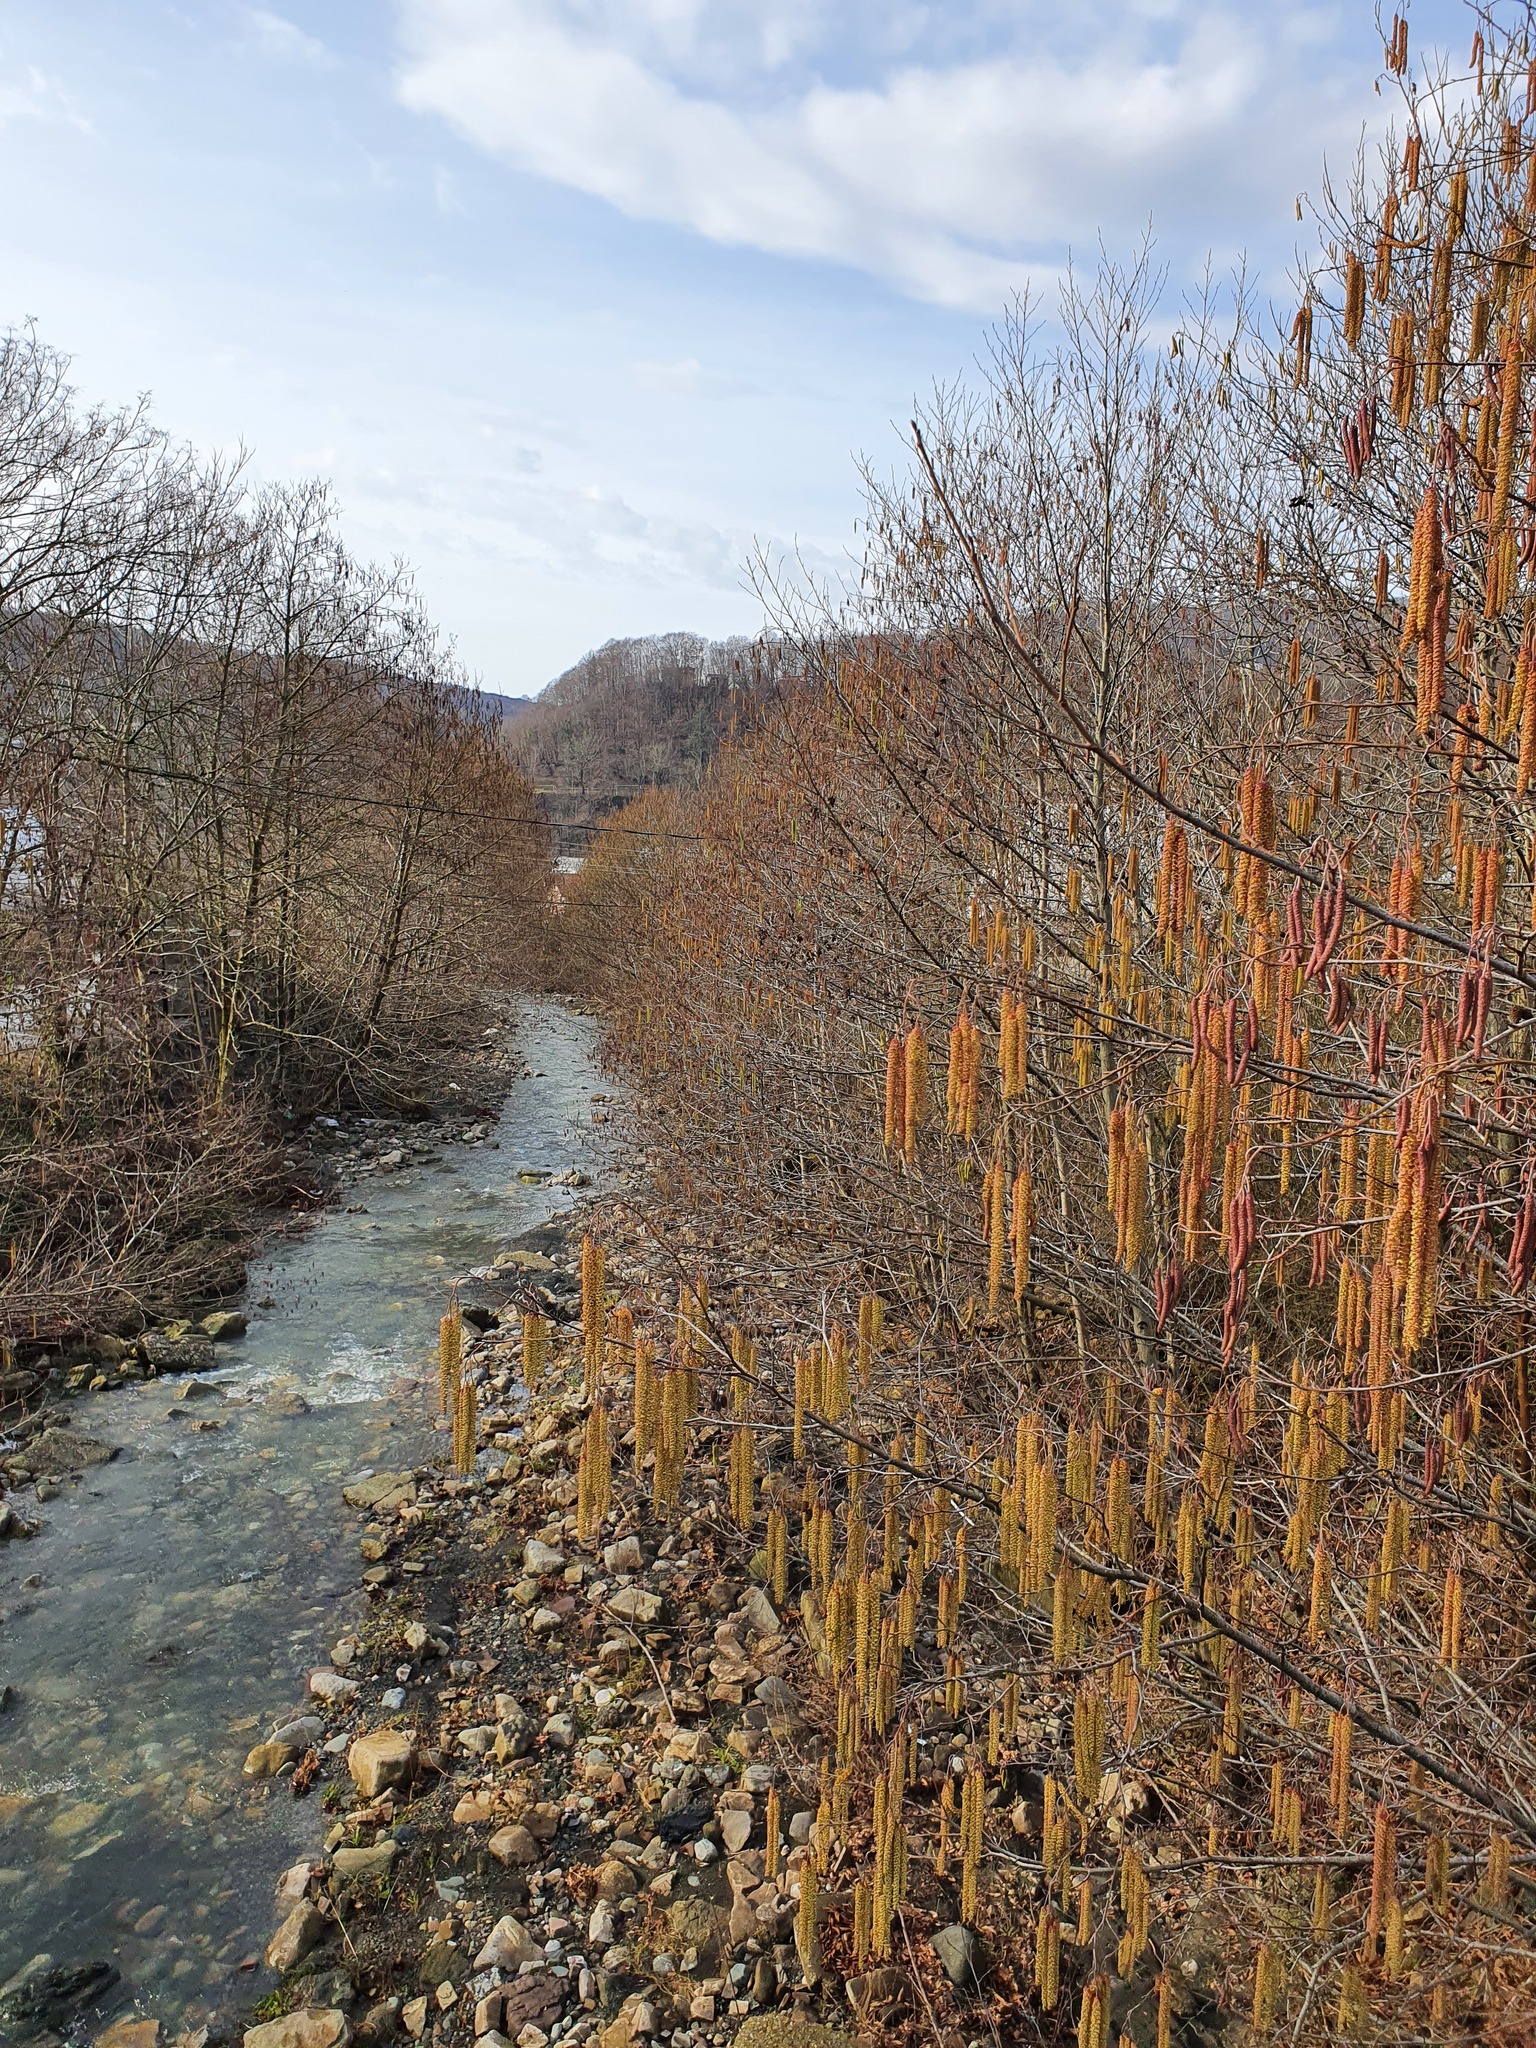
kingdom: Plantae
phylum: Tracheophyta
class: Magnoliopsida
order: Fagales
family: Betulaceae
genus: Alnus
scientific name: Alnus glutinosa
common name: Black alder
